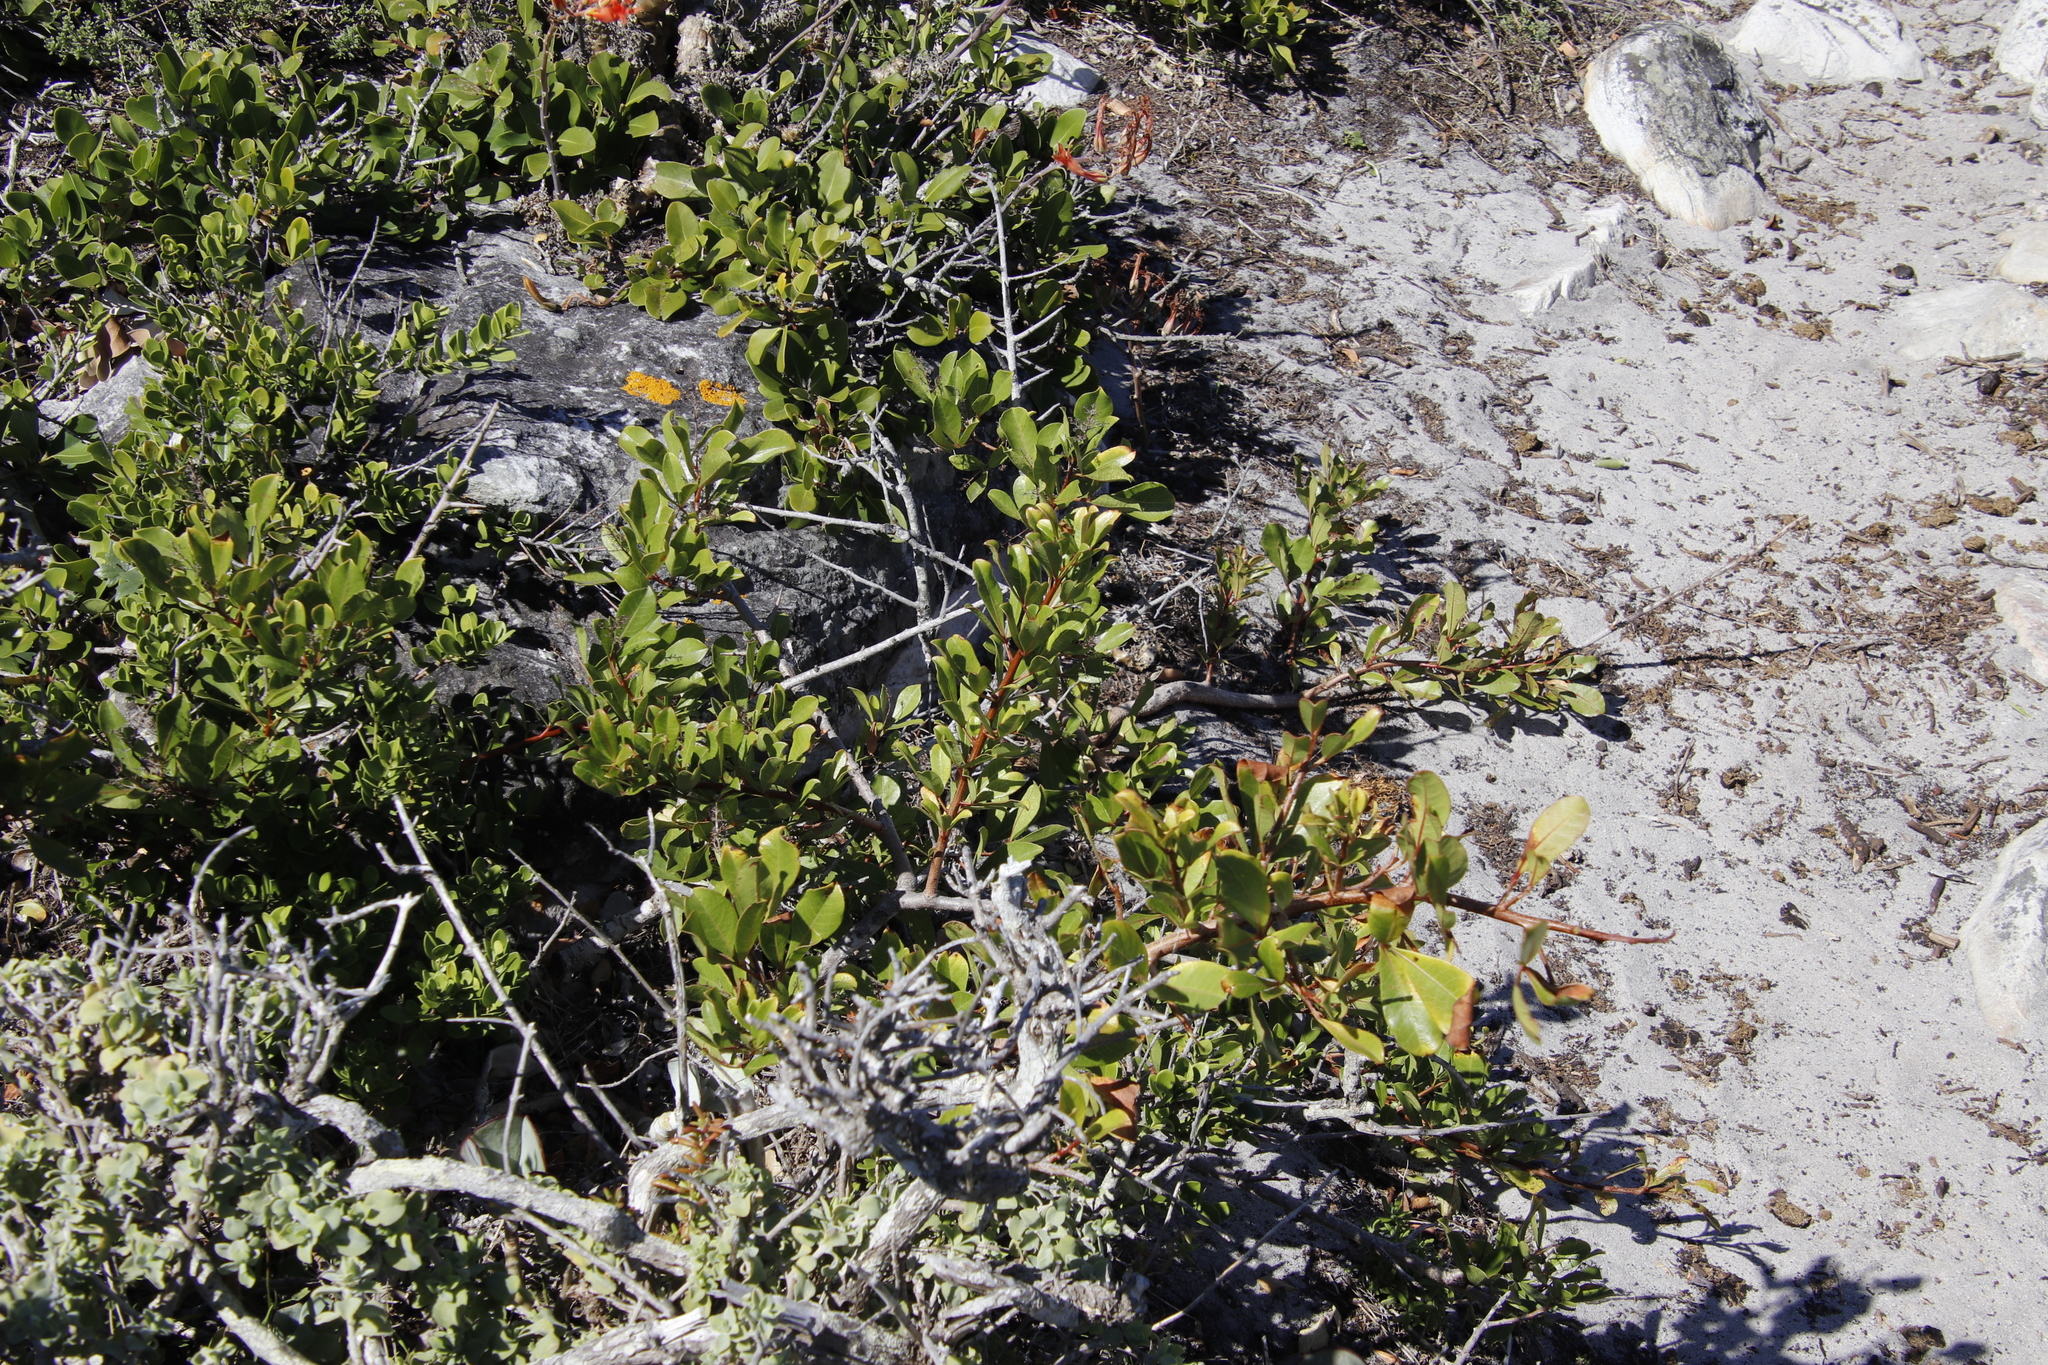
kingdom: Plantae
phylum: Tracheophyta
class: Magnoliopsida
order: Sapindales
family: Anacardiaceae
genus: Searsia
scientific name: Searsia laevigata
